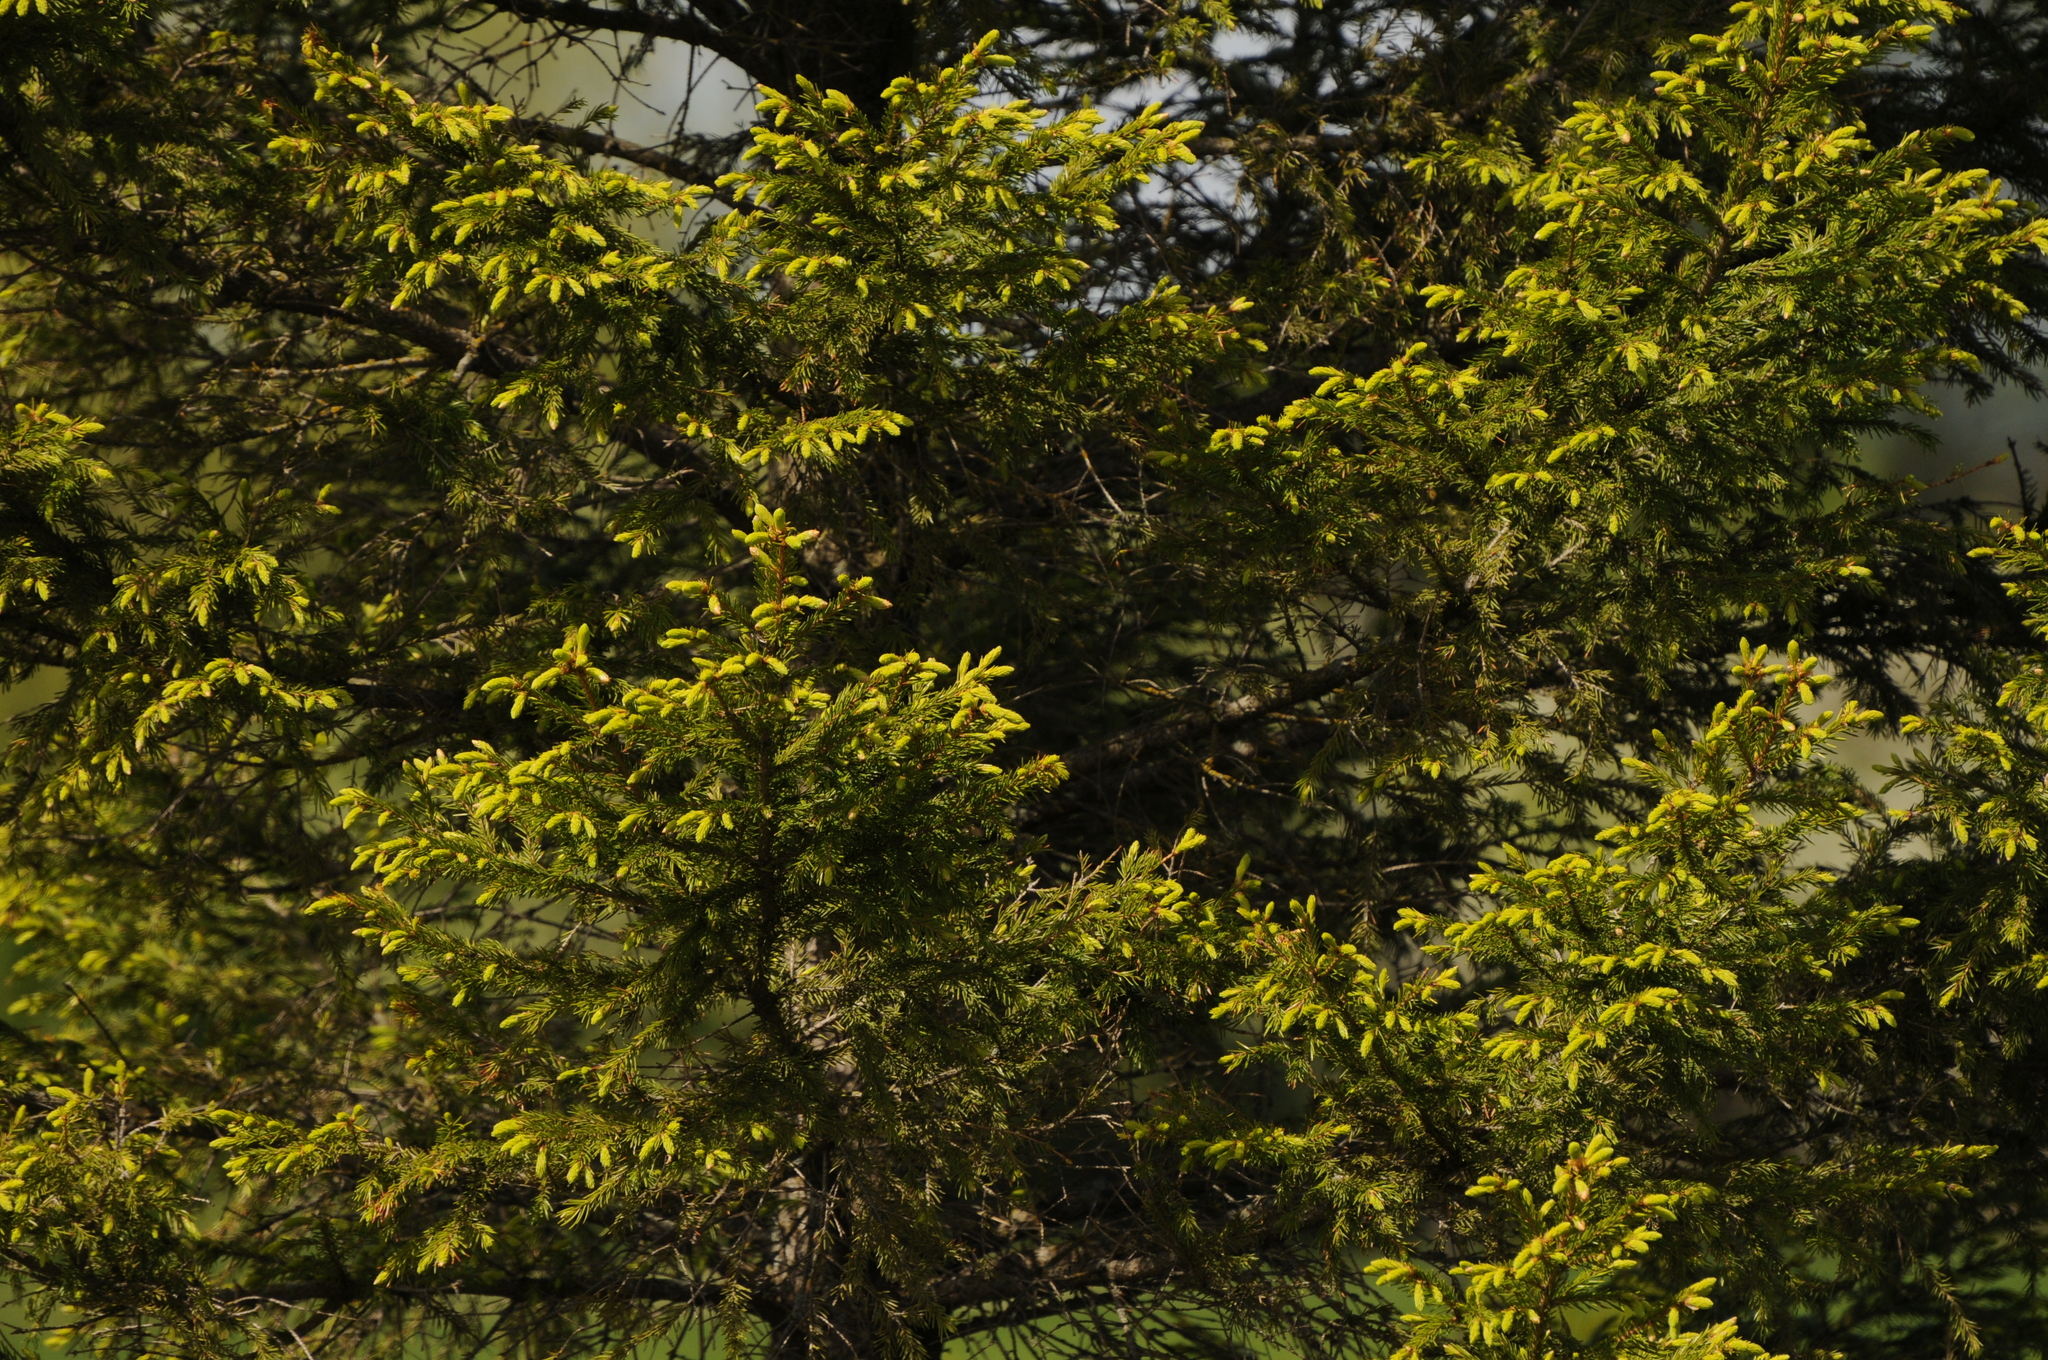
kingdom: Plantae
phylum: Tracheophyta
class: Pinopsida
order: Pinales
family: Pinaceae
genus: Picea
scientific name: Picea abies
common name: Norway spruce
